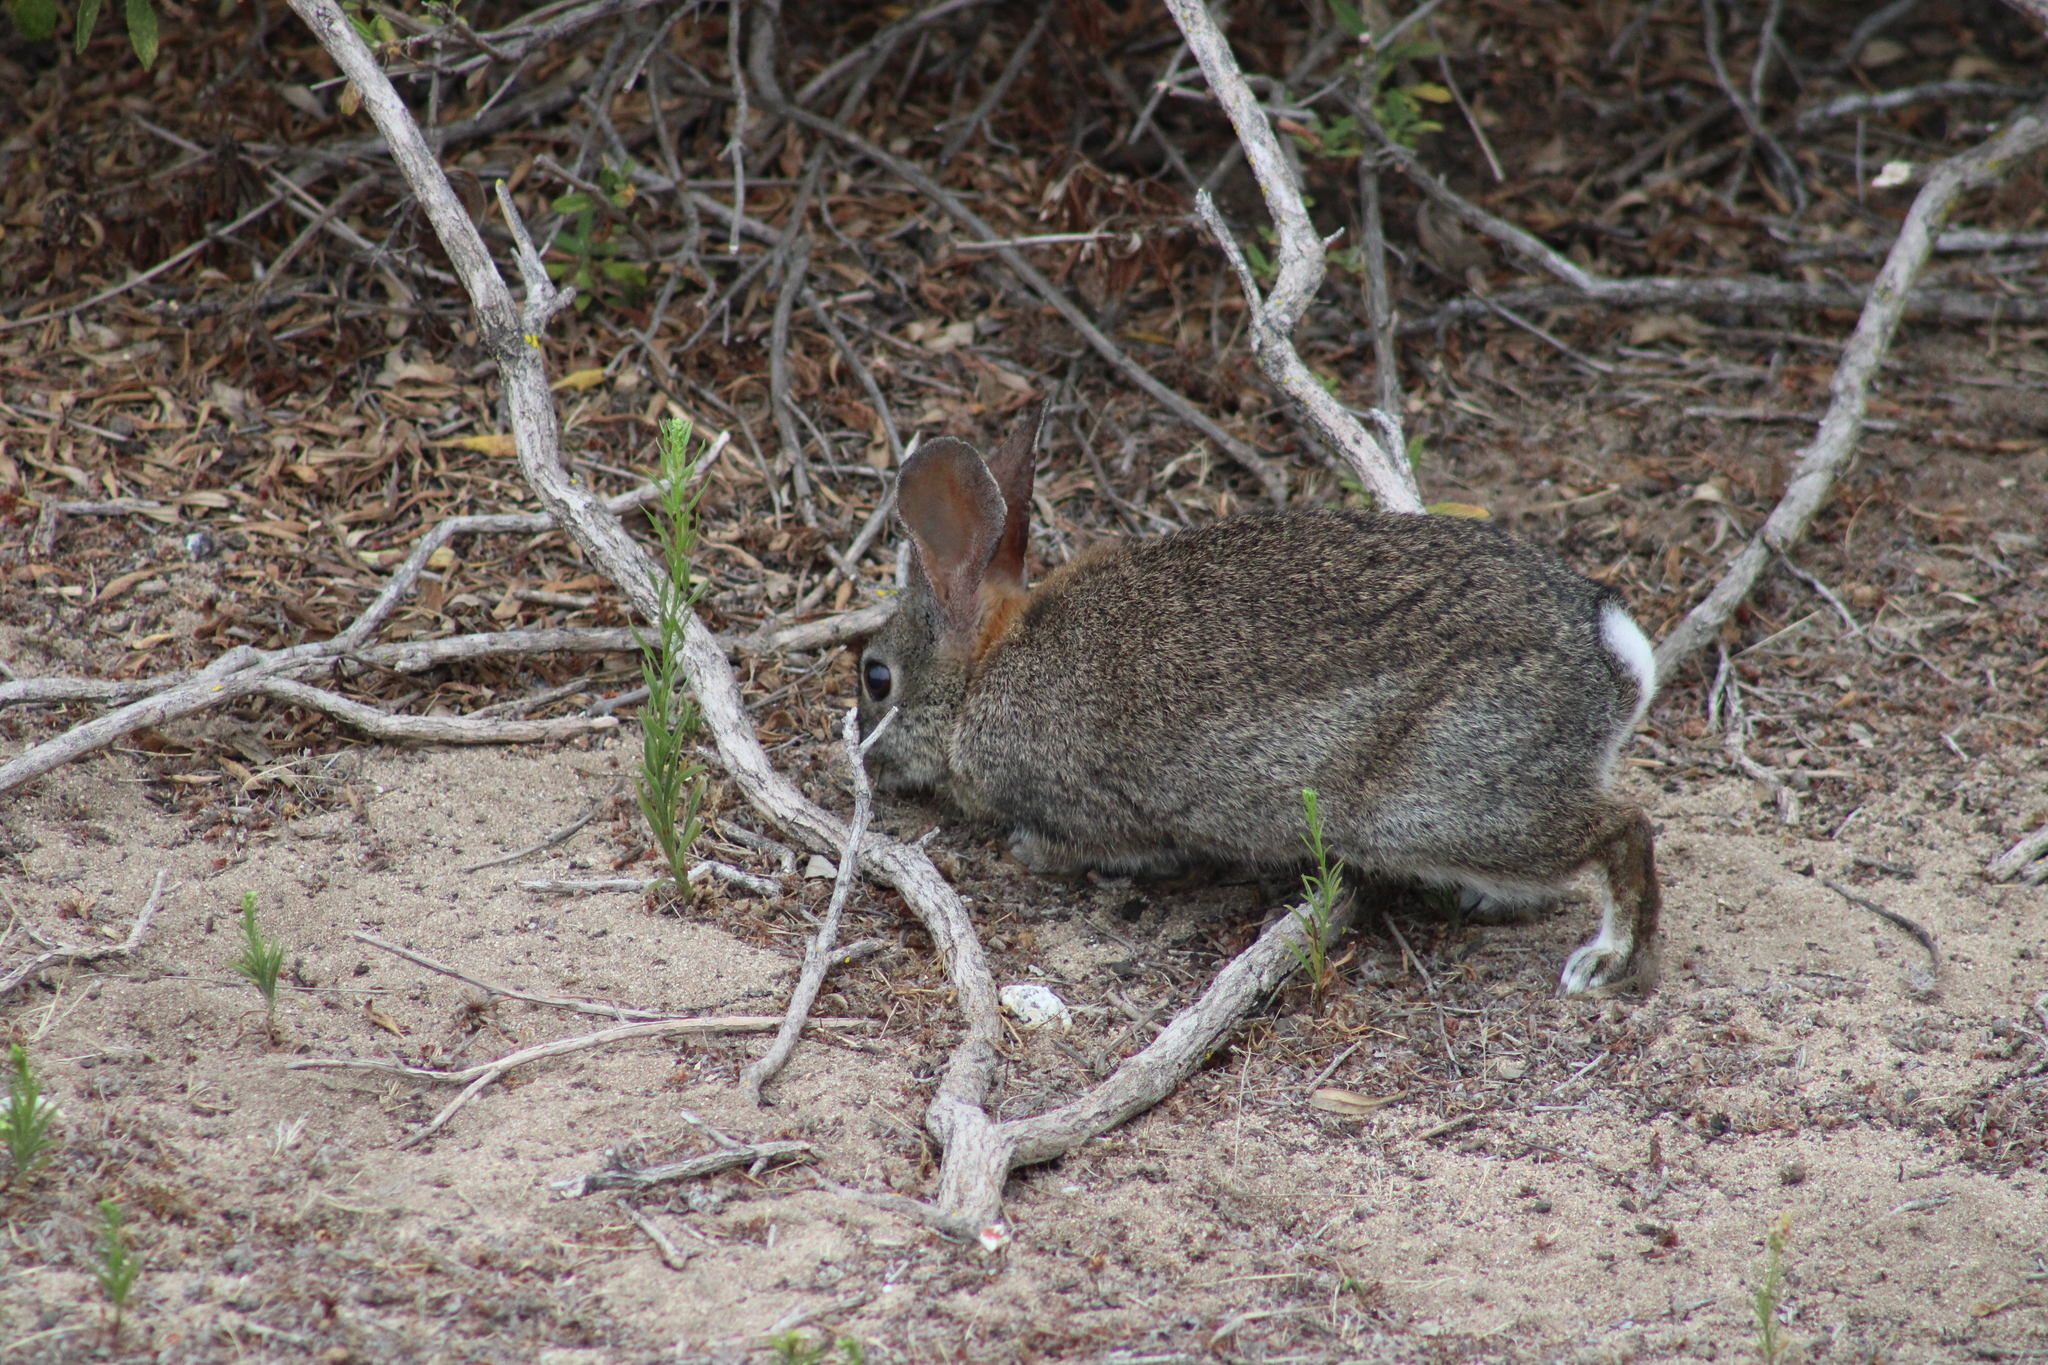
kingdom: Animalia
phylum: Chordata
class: Mammalia
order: Lagomorpha
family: Leporidae
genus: Sylvilagus
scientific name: Sylvilagus bachmani
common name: Brush rabbit
